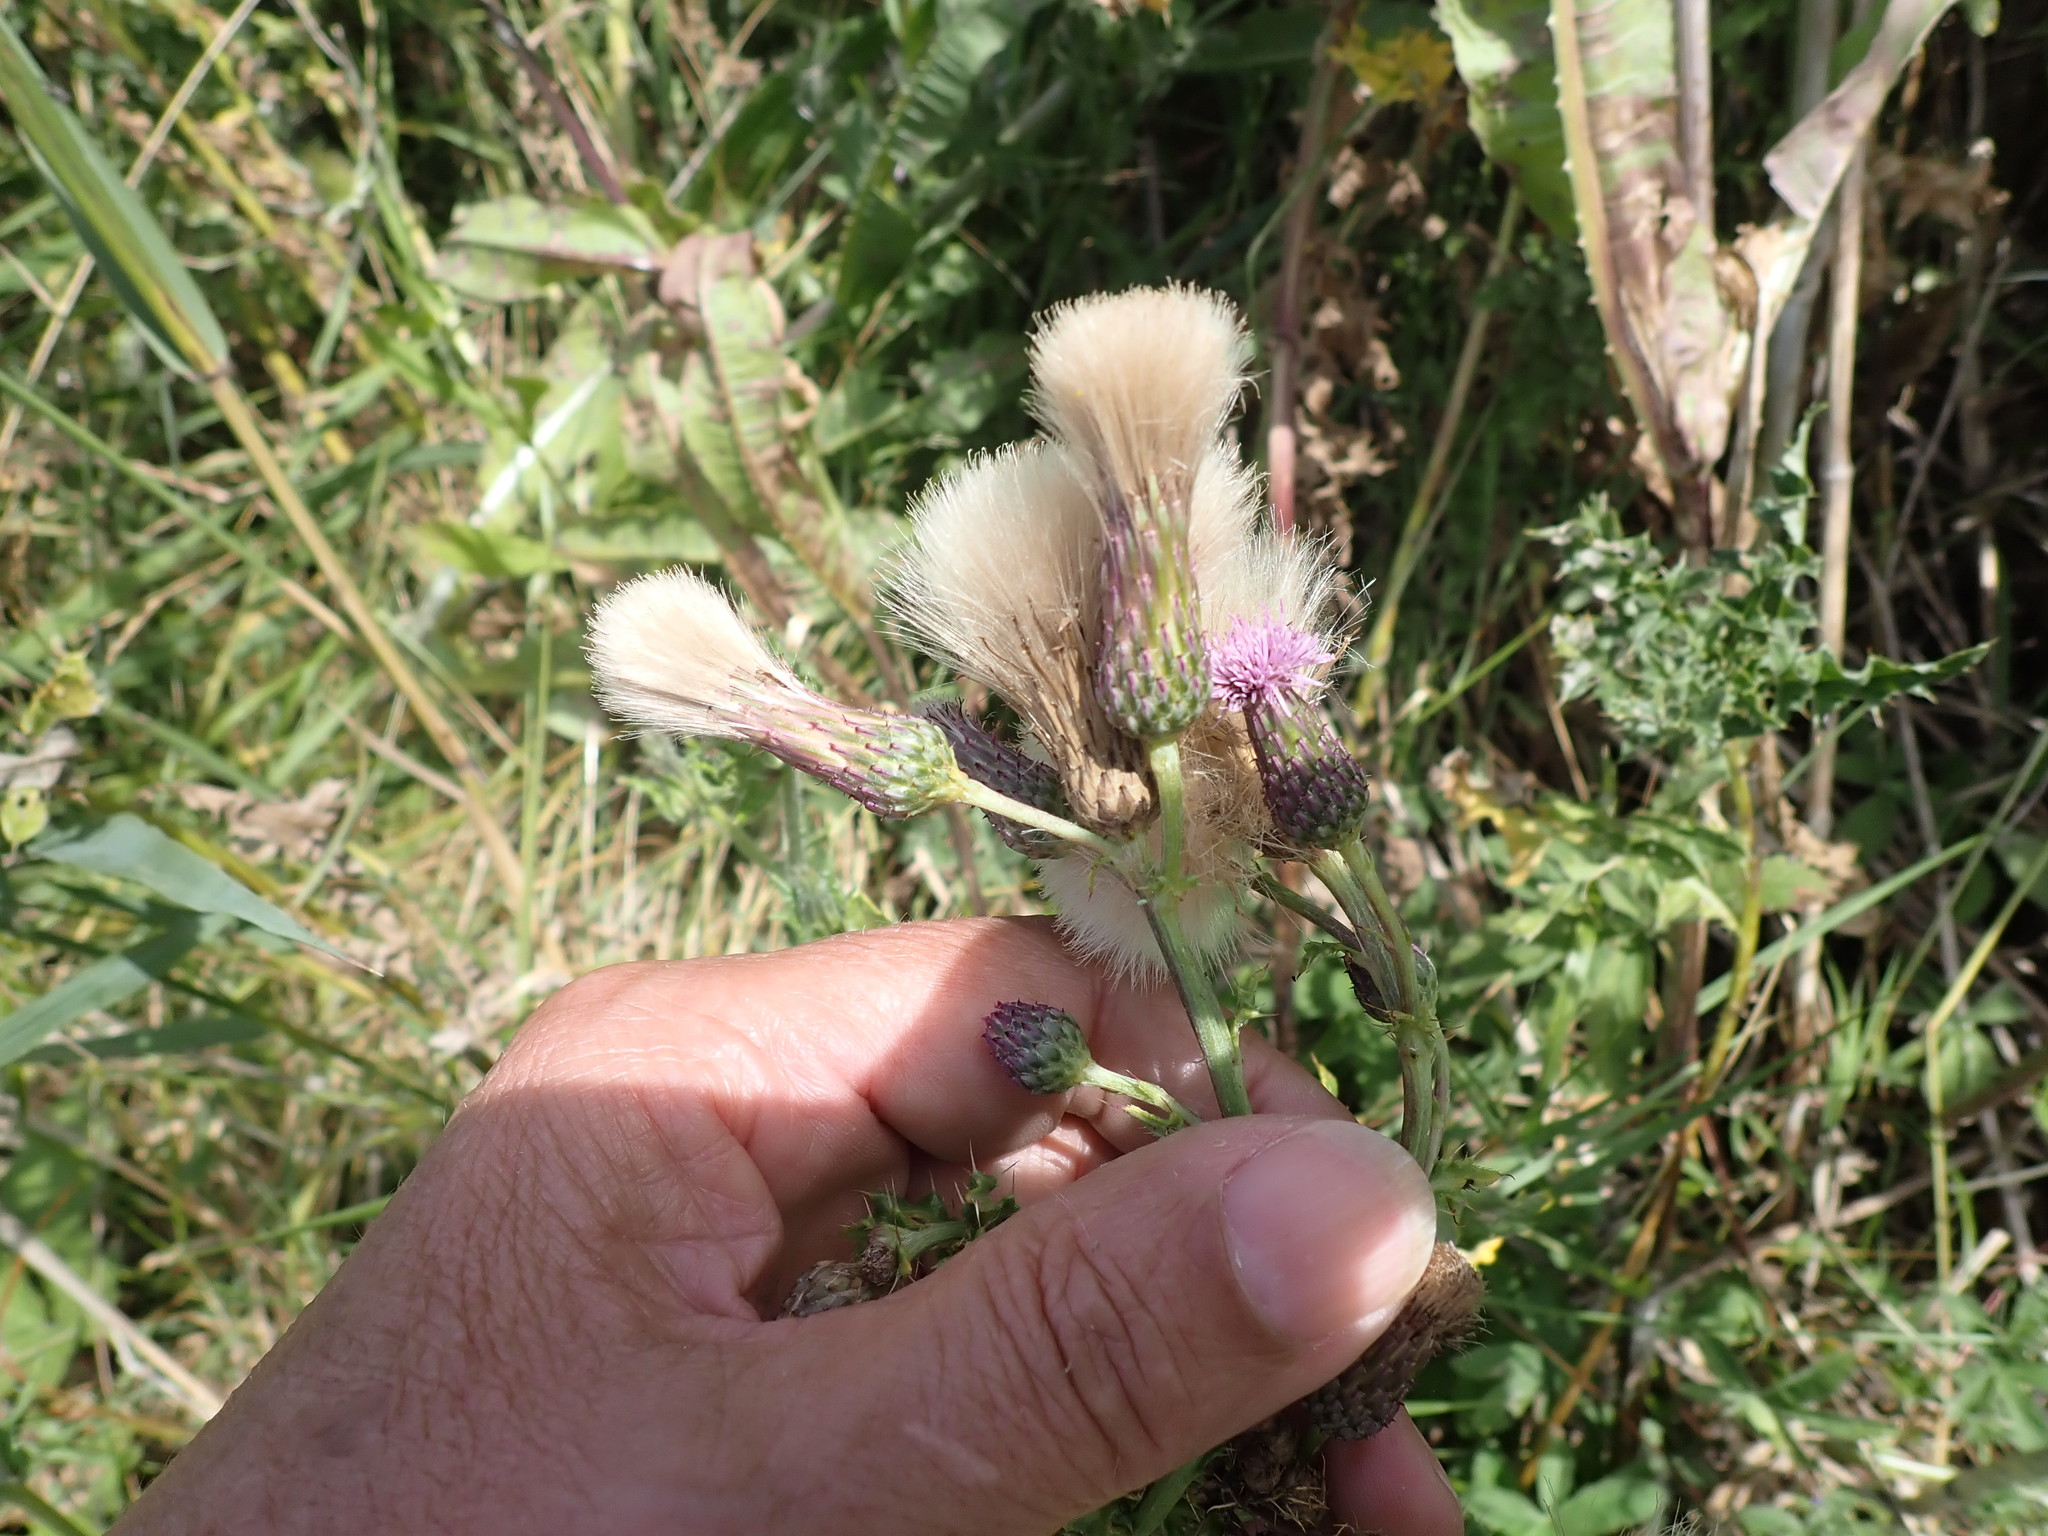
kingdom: Plantae
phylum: Tracheophyta
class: Magnoliopsida
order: Asterales
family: Asteraceae
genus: Cirsium
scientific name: Cirsium arvense
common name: Creeping thistle
